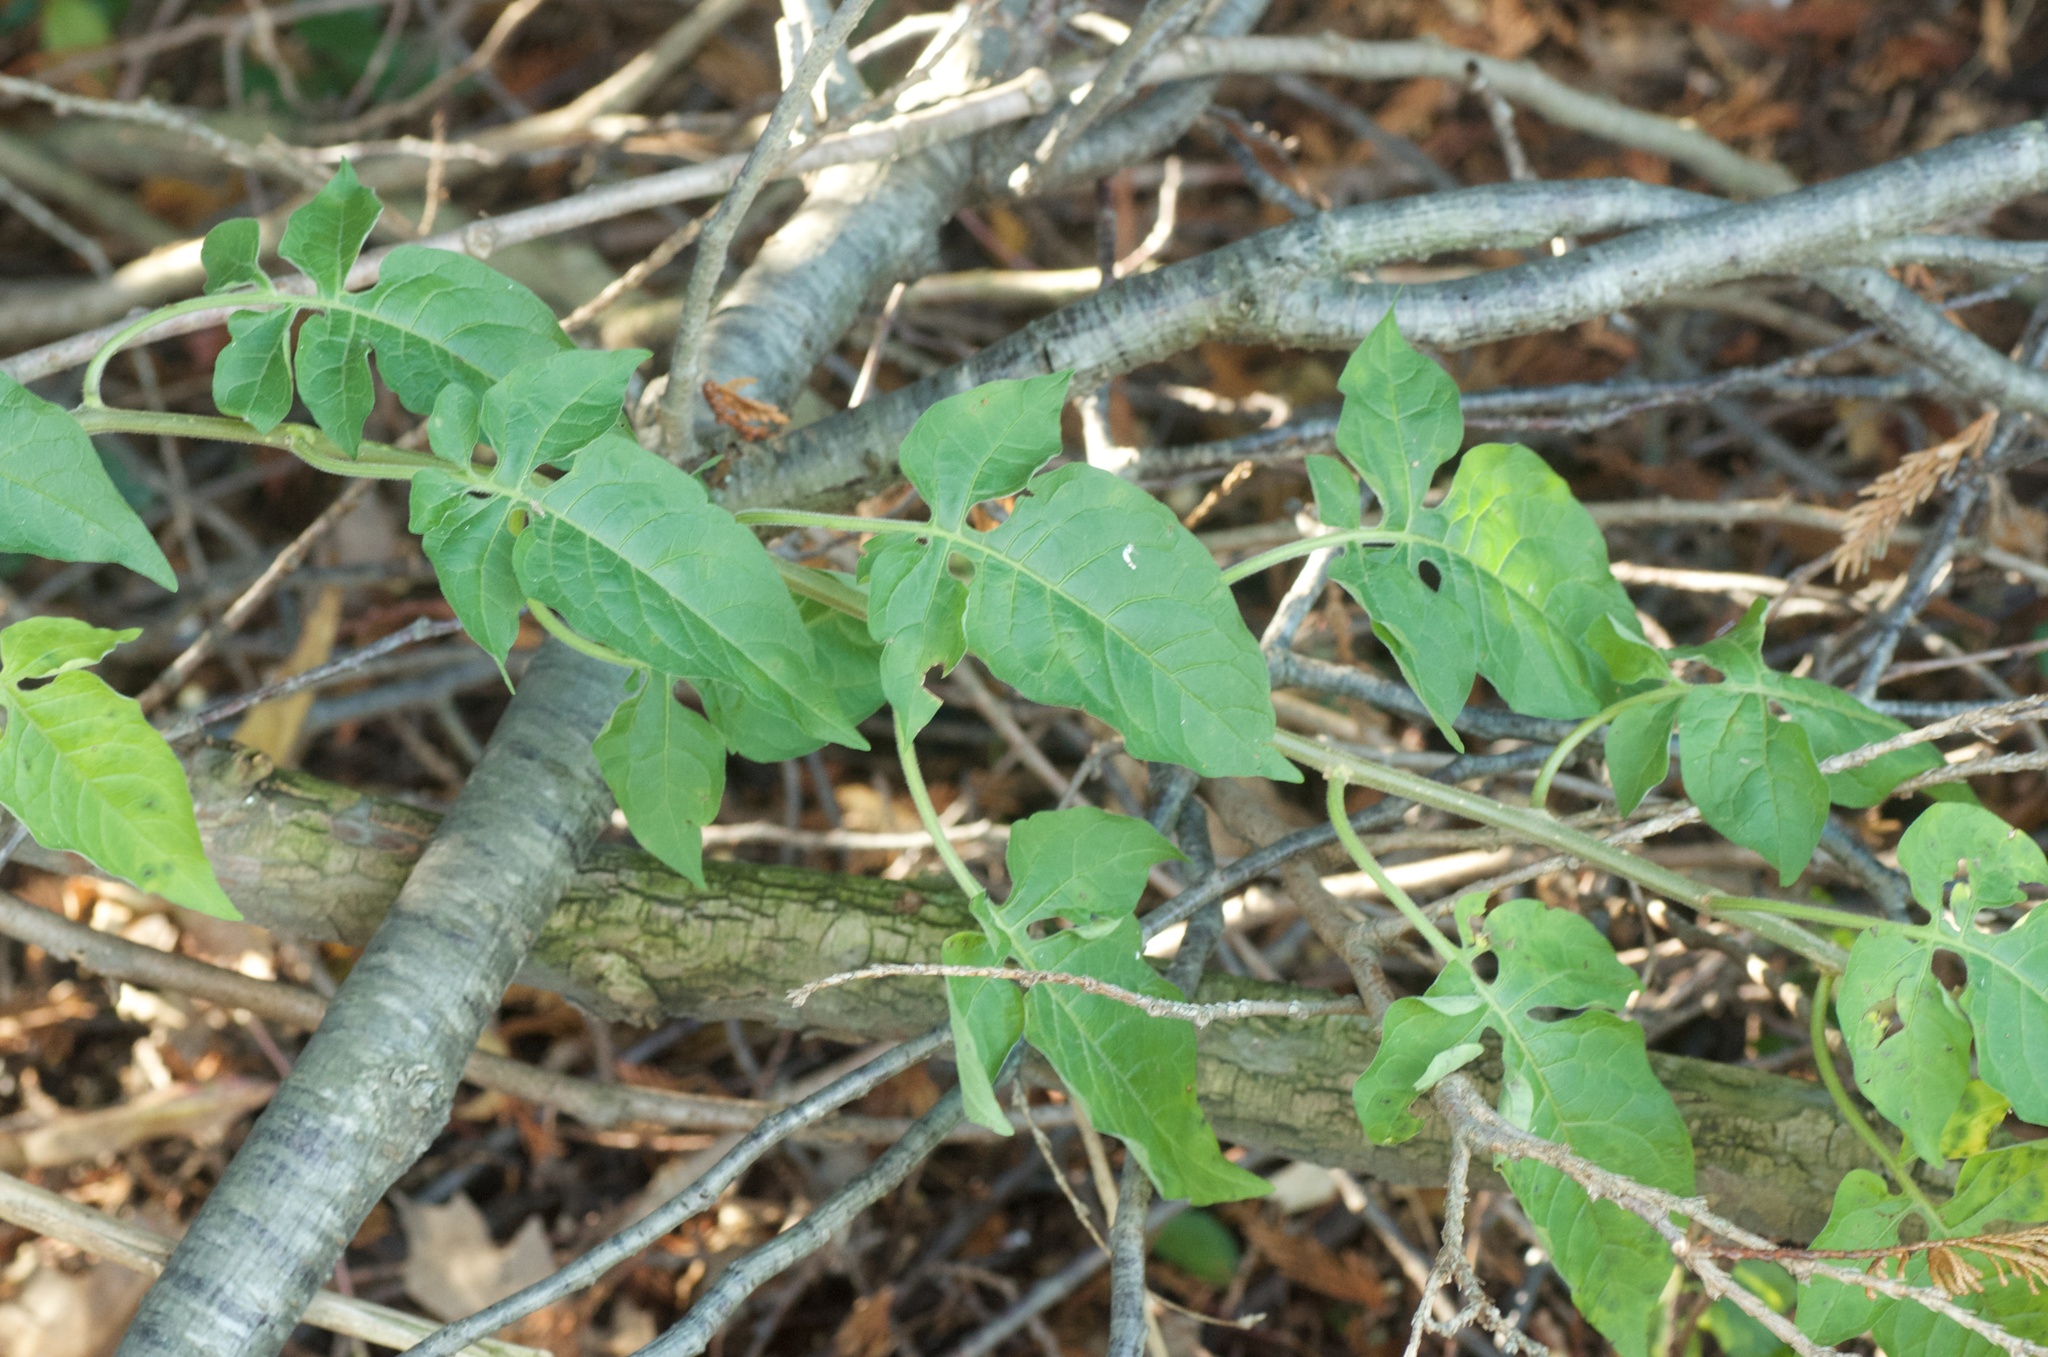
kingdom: Plantae
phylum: Tracheophyta
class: Magnoliopsida
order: Solanales
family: Solanaceae
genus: Solanum
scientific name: Solanum dulcamara
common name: Climbing nightshade
